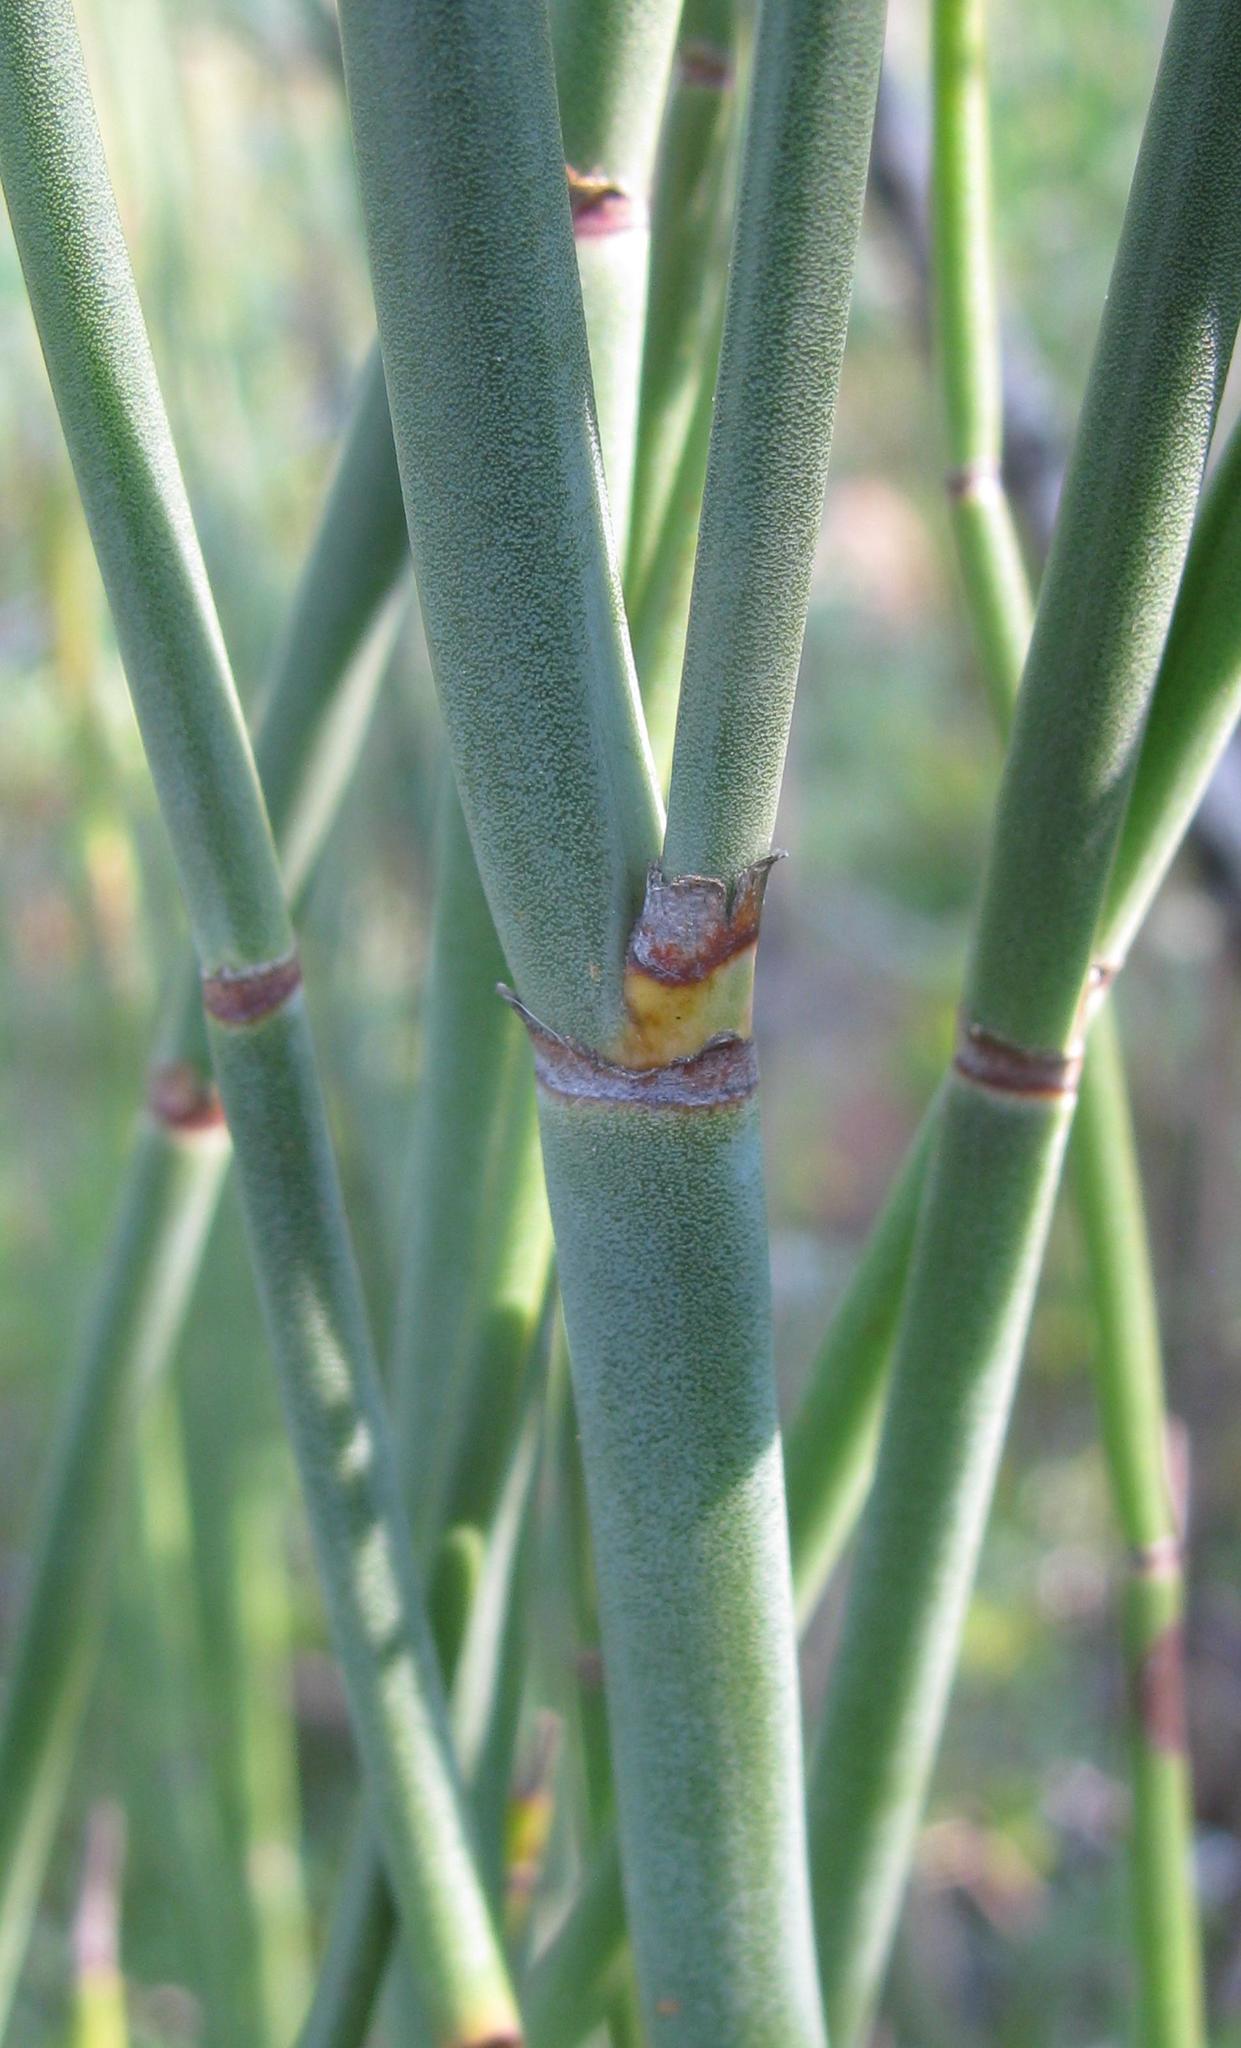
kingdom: Plantae
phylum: Tracheophyta
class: Liliopsida
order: Poales
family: Restionaceae
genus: Elegia
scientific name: Elegia macrocarpa
